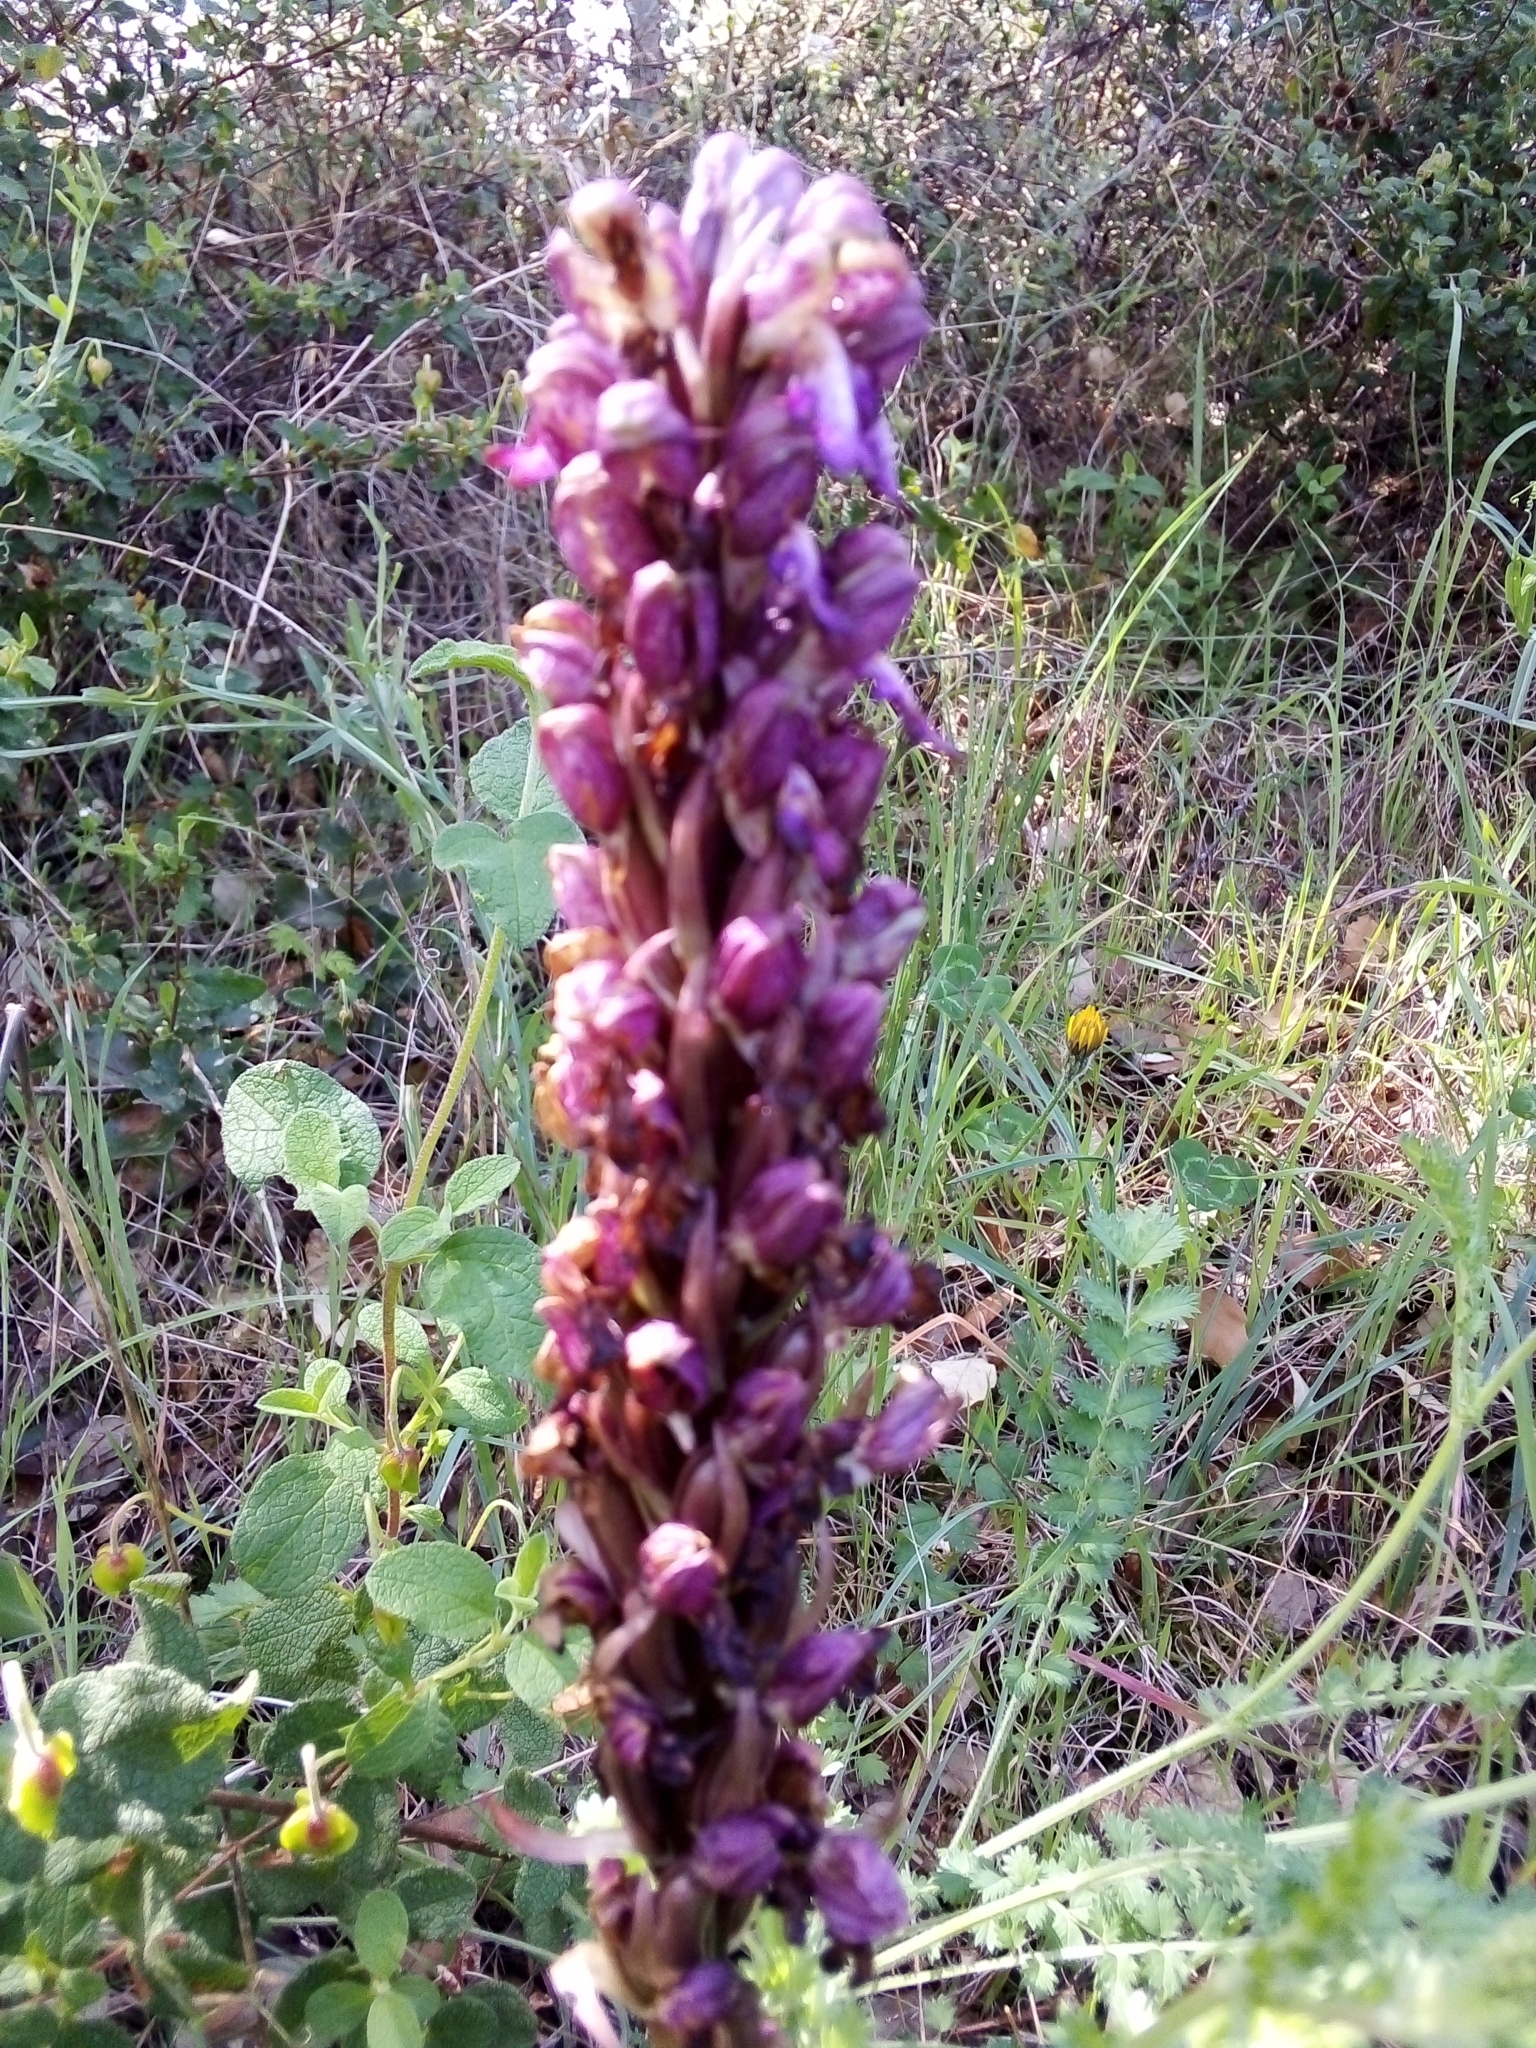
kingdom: Plantae
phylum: Tracheophyta
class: Liliopsida
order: Asparagales
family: Orchidaceae
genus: Himantoglossum
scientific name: Himantoglossum robertianum
